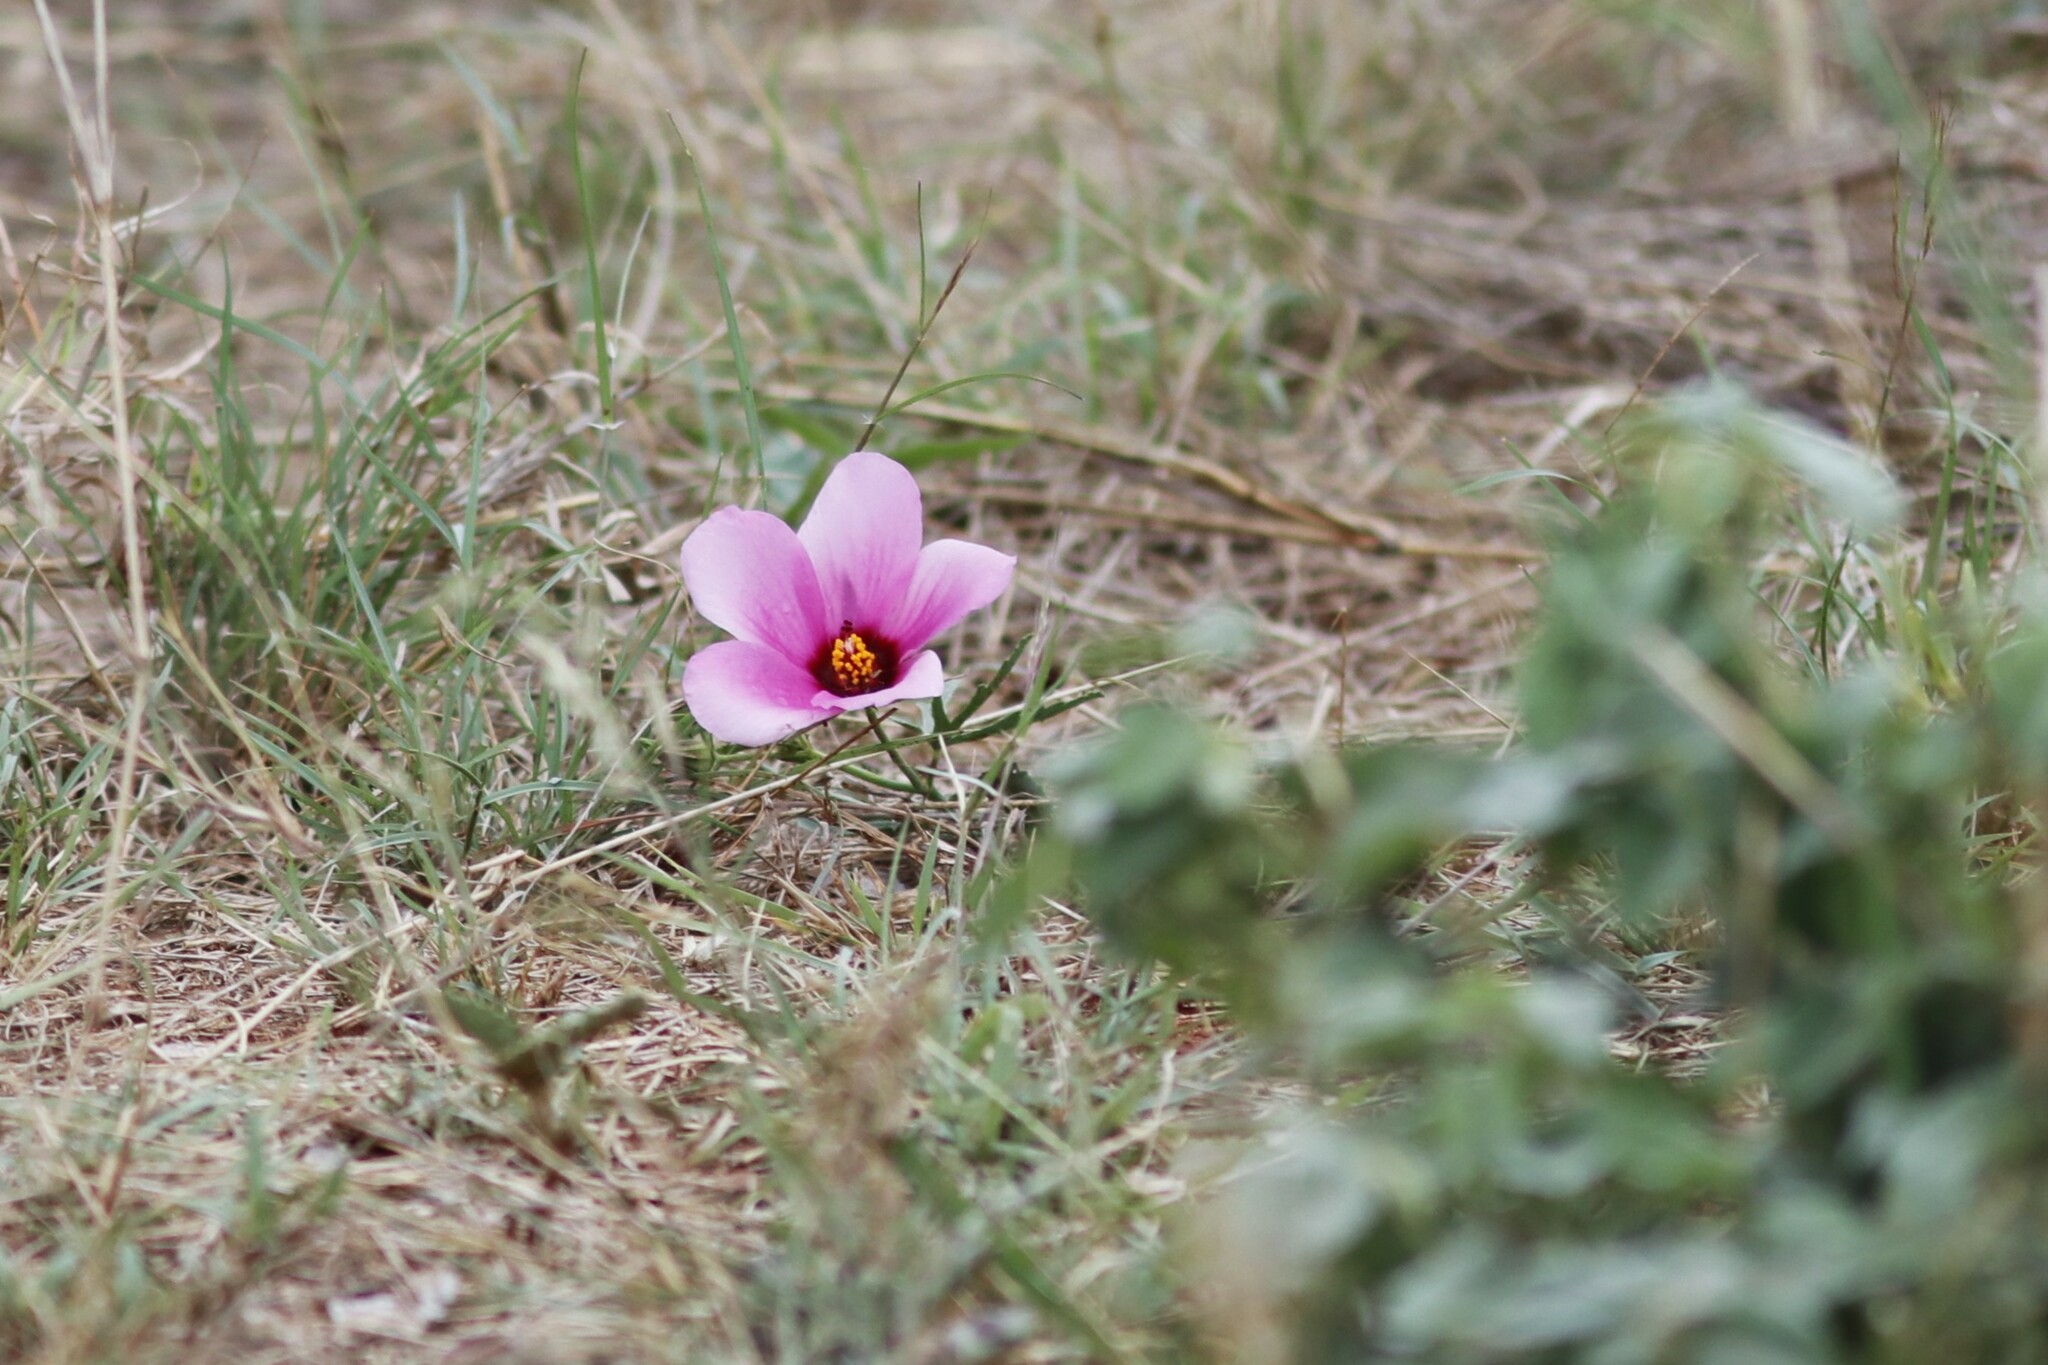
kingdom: Plantae
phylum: Tracheophyta
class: Magnoliopsida
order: Malvales
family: Malvaceae
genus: Hibiscus
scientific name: Hibiscus pusillus
